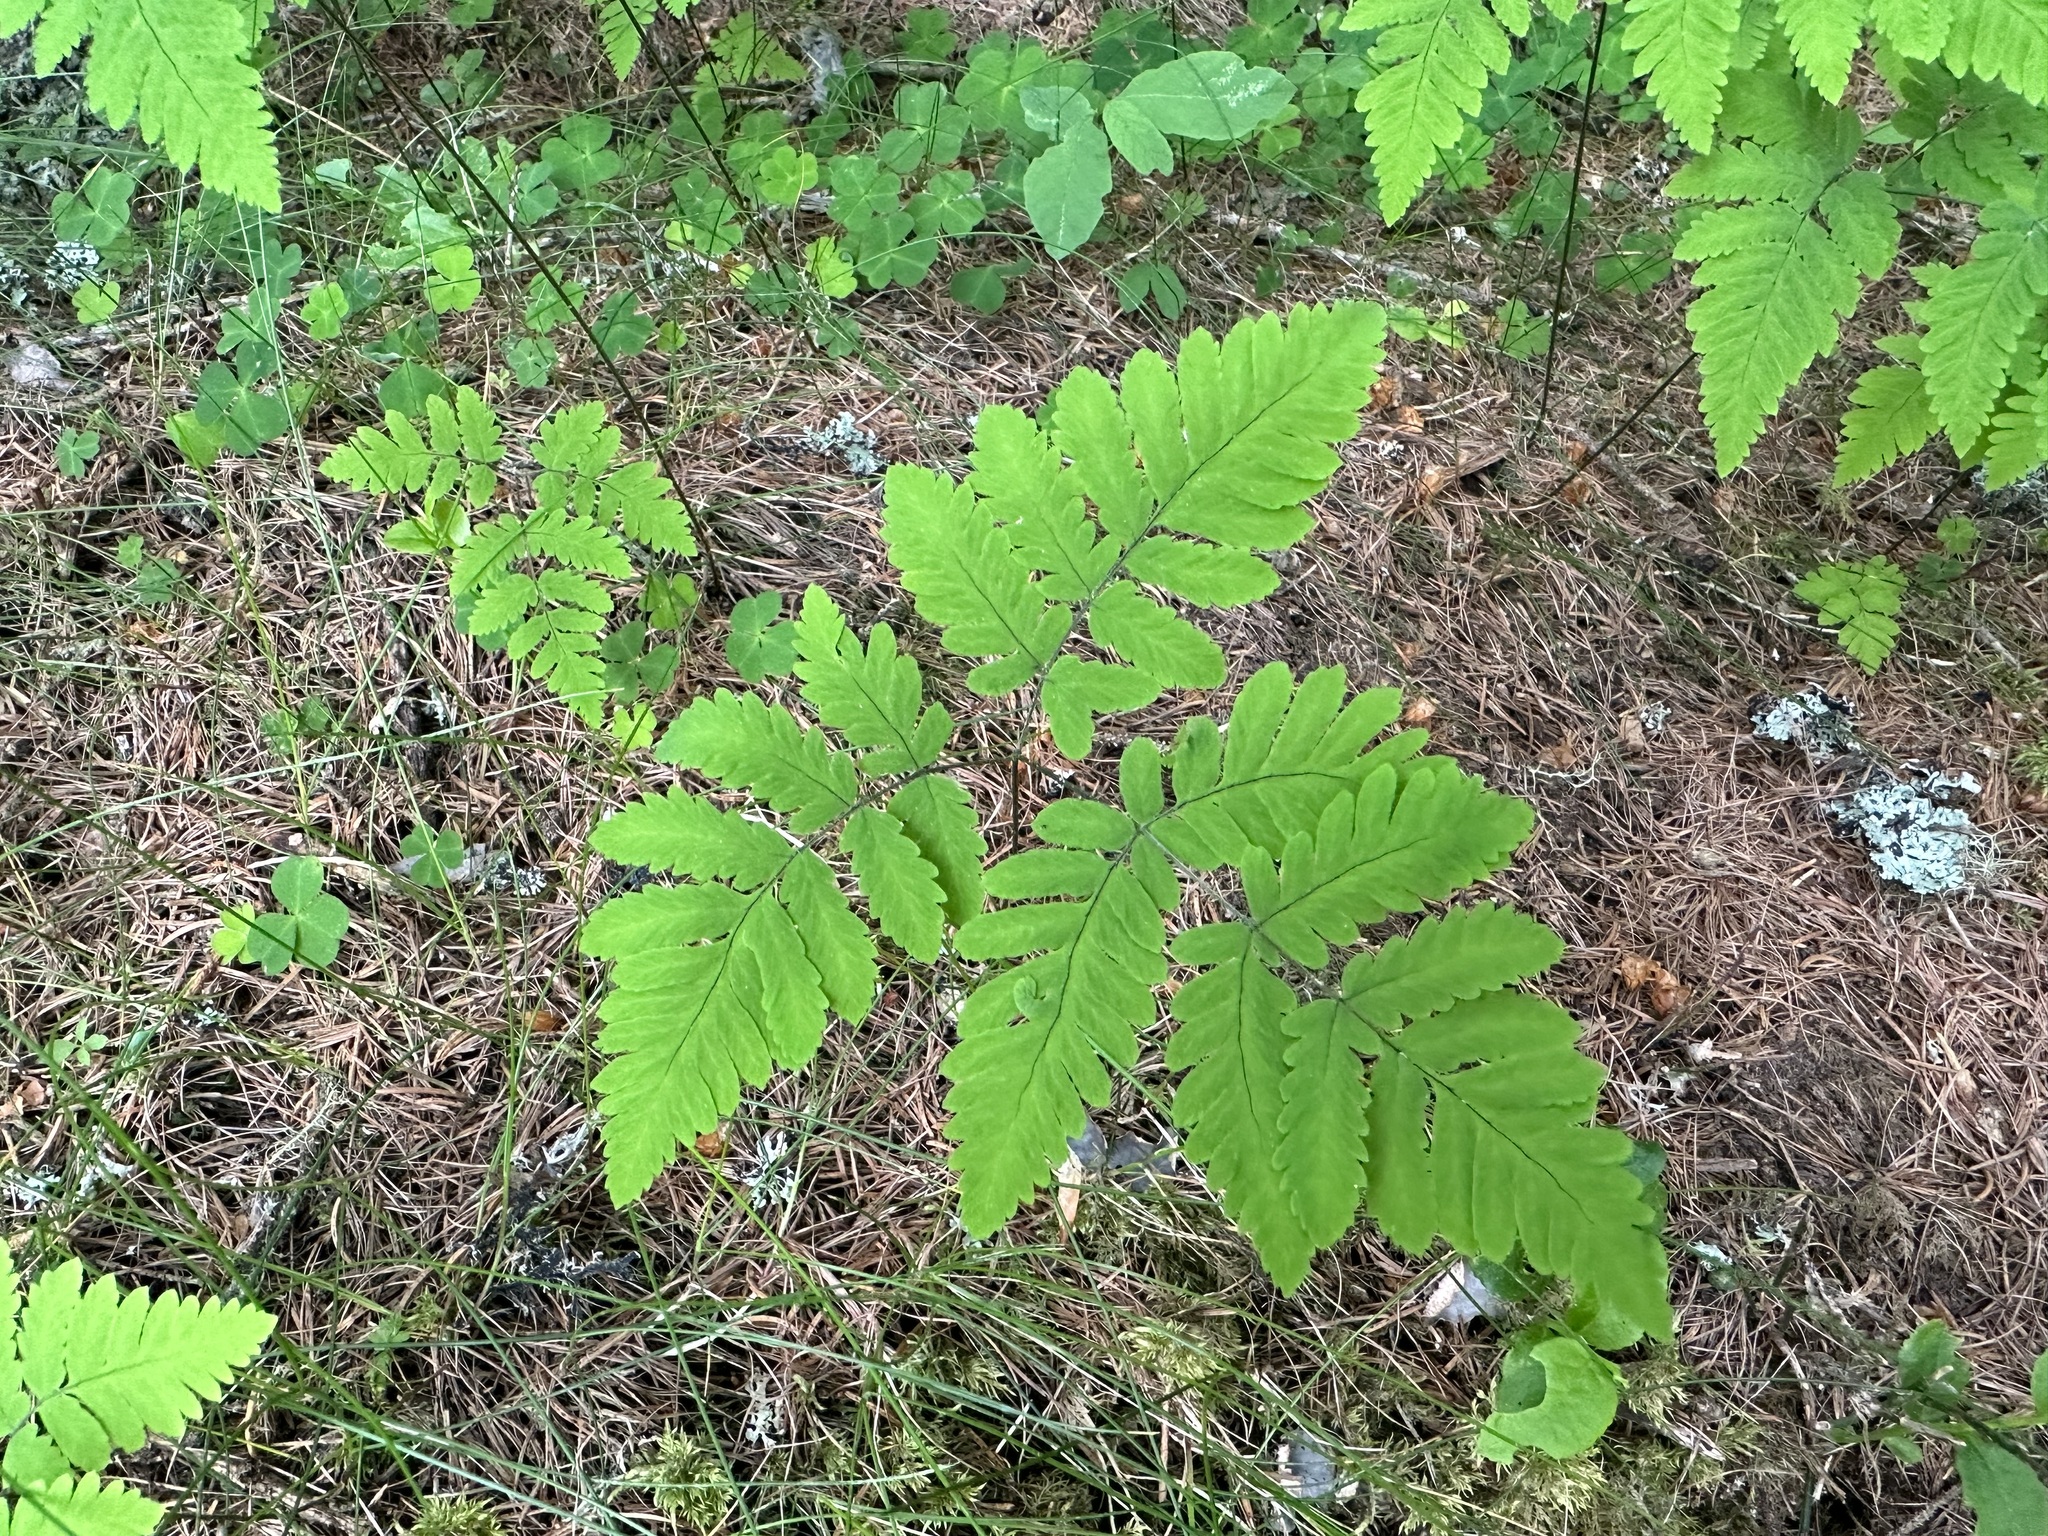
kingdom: Plantae
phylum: Tracheophyta
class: Polypodiopsida
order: Polypodiales
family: Cystopteridaceae
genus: Gymnocarpium
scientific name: Gymnocarpium dryopteris
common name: Oak fern
